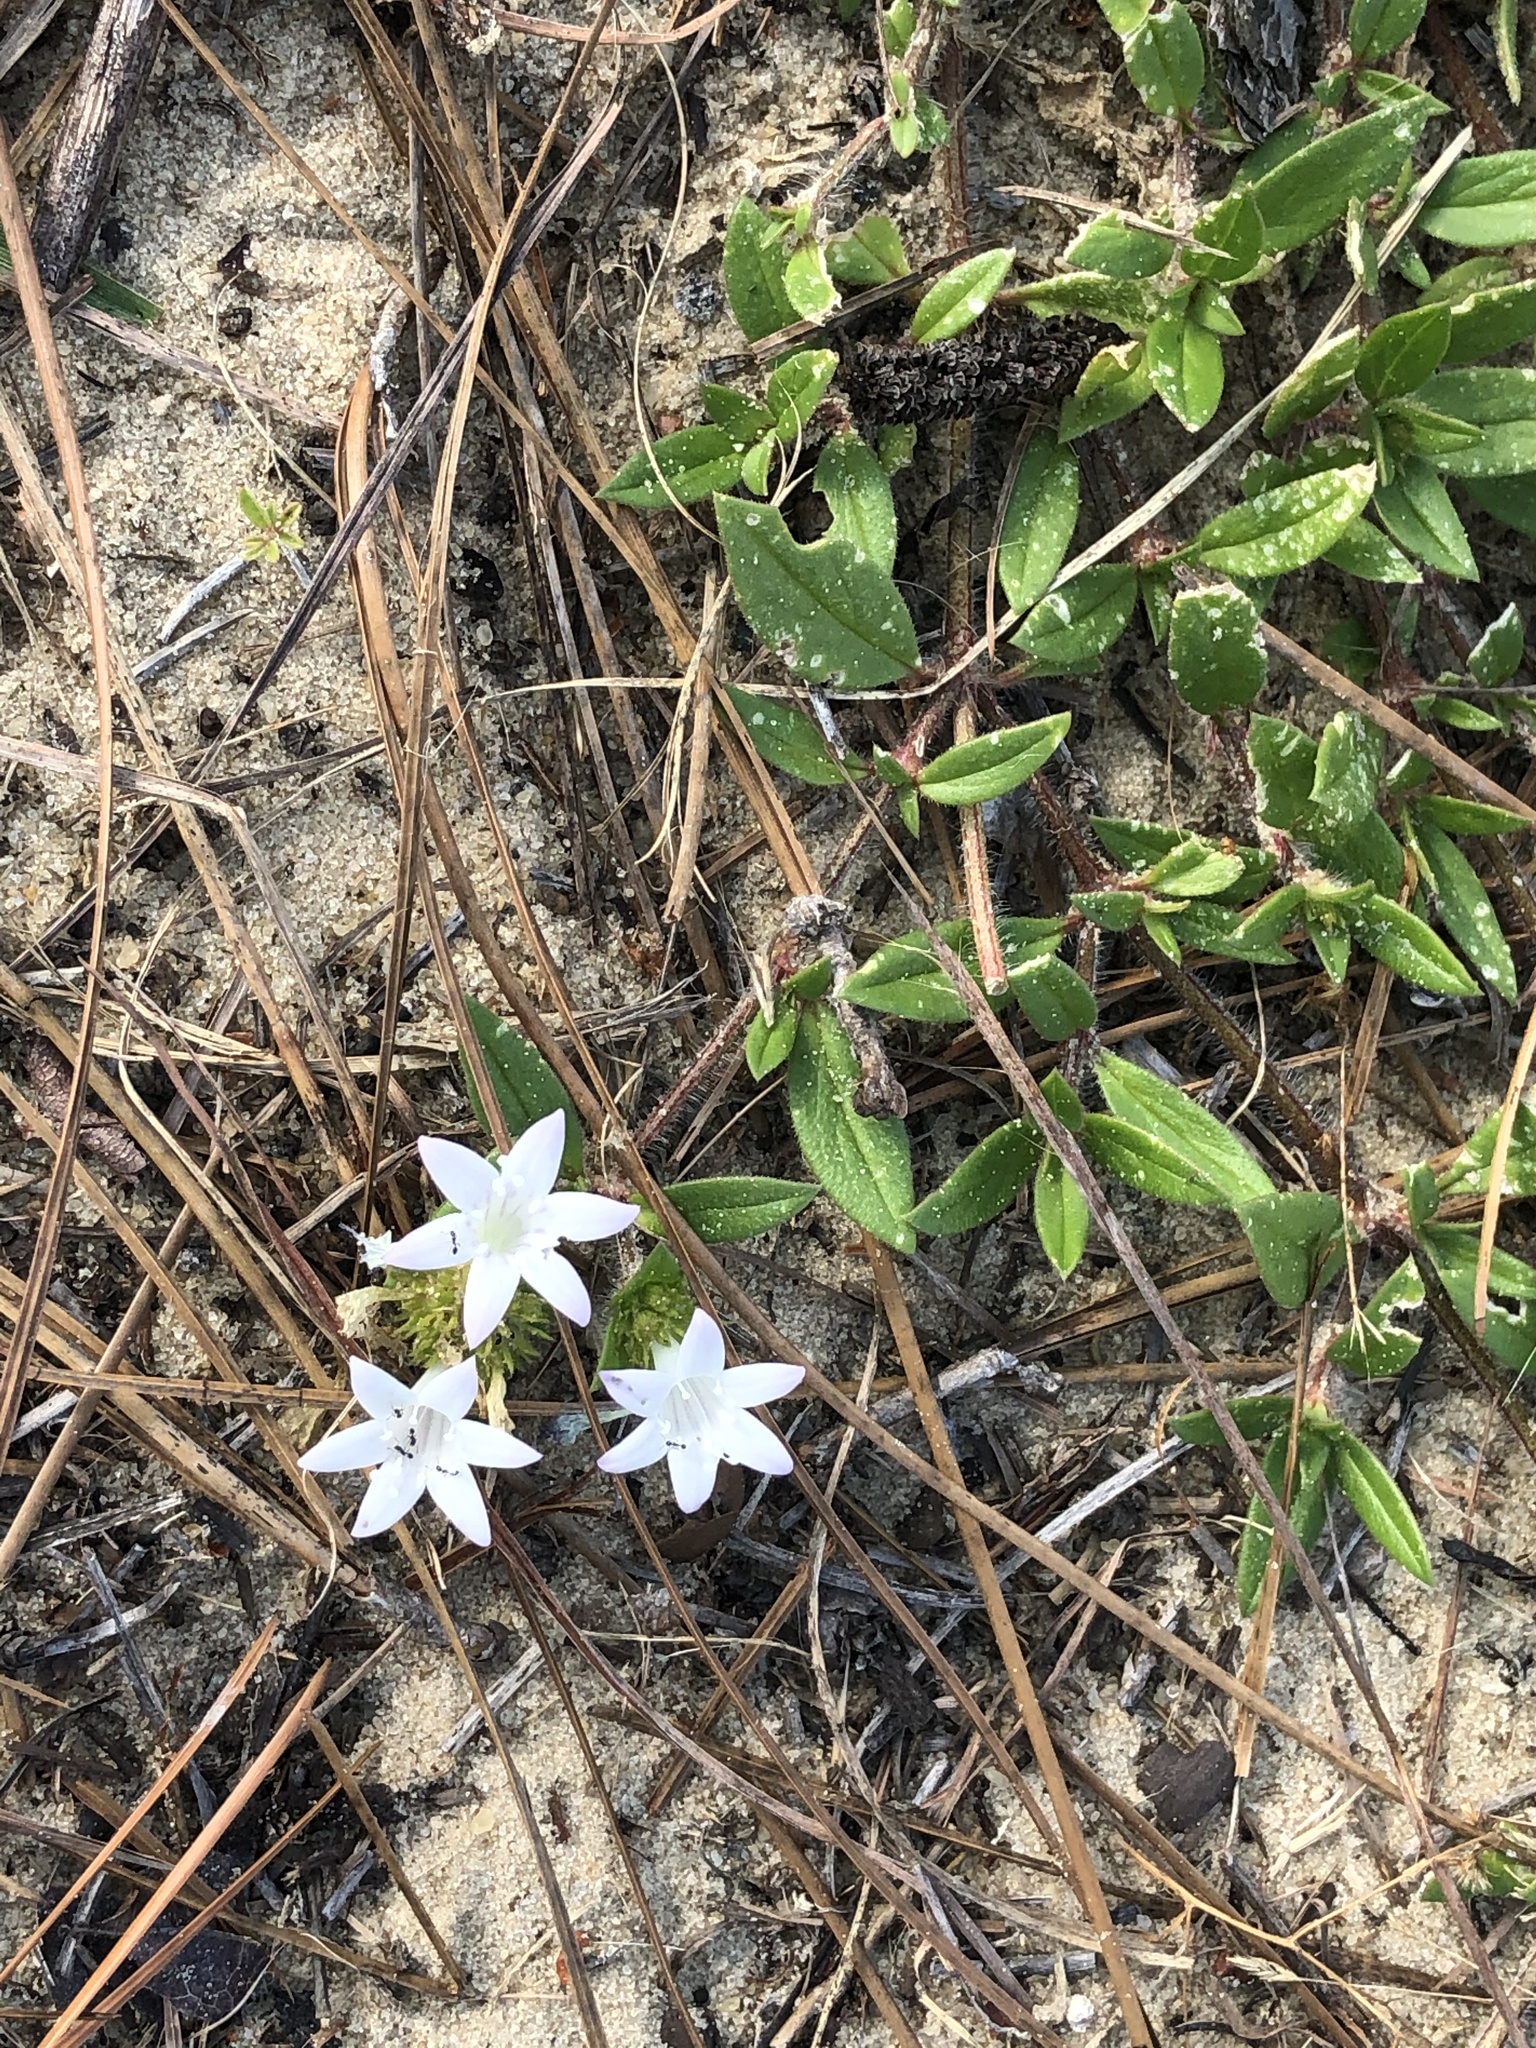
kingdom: Plantae
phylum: Tracheophyta
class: Magnoliopsida
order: Gentianales
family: Rubiaceae
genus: Richardia
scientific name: Richardia grandiflora
